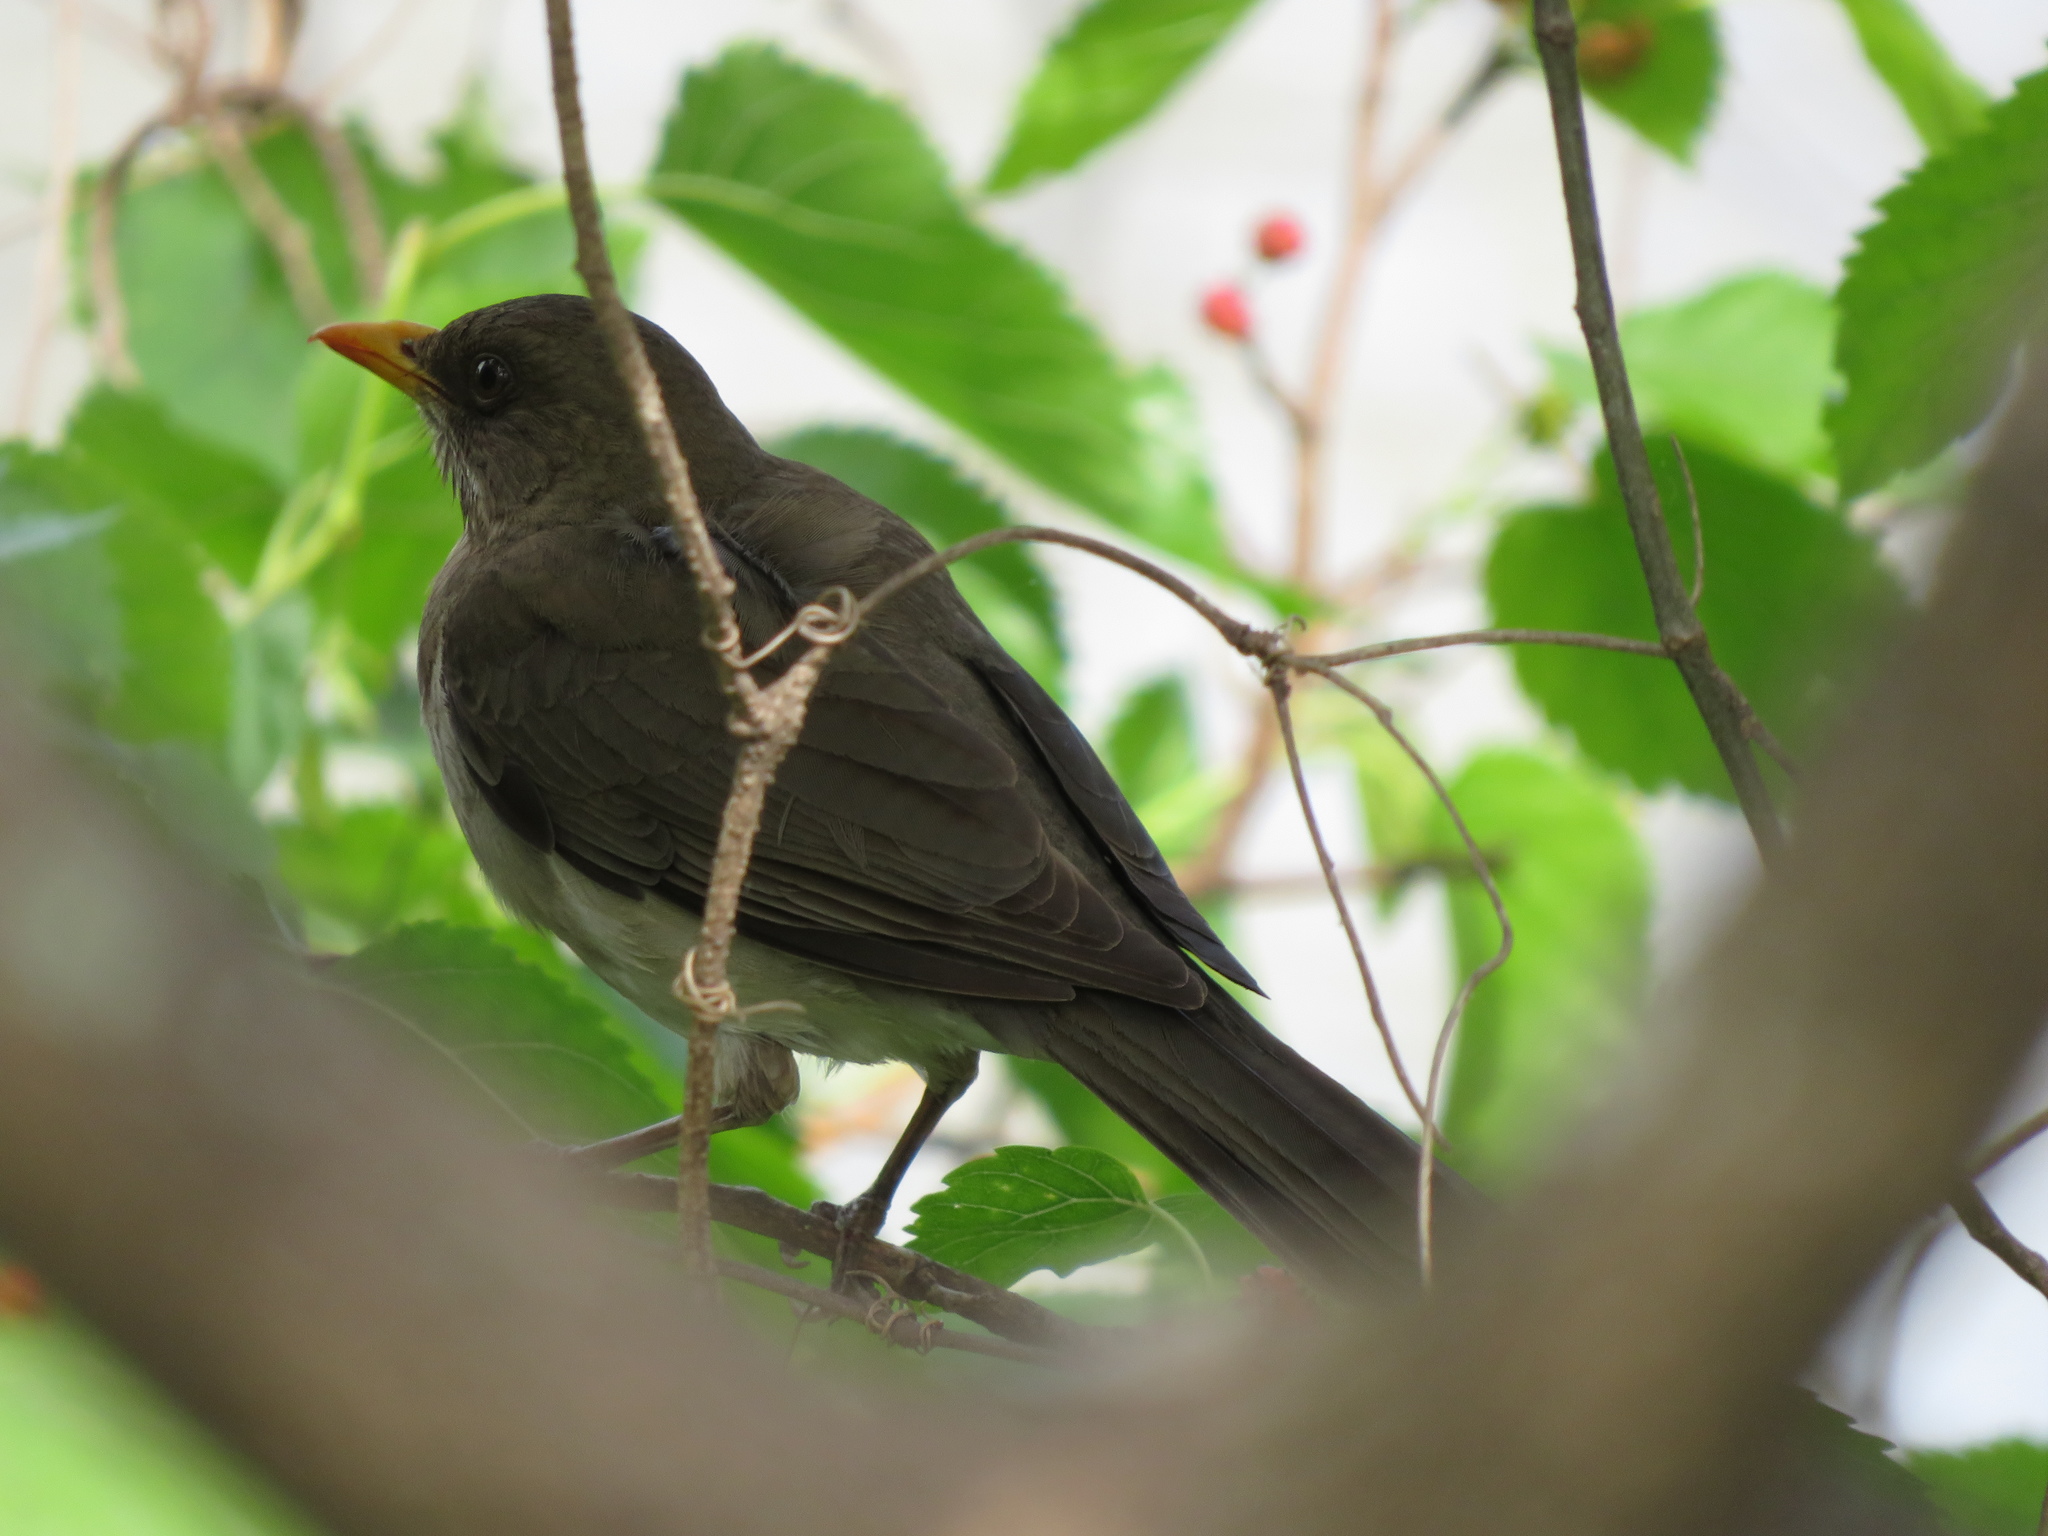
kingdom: Animalia
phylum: Chordata
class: Aves
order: Passeriformes
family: Turdidae
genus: Turdus
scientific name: Turdus amaurochalinus
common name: Creamy-bellied thrush
